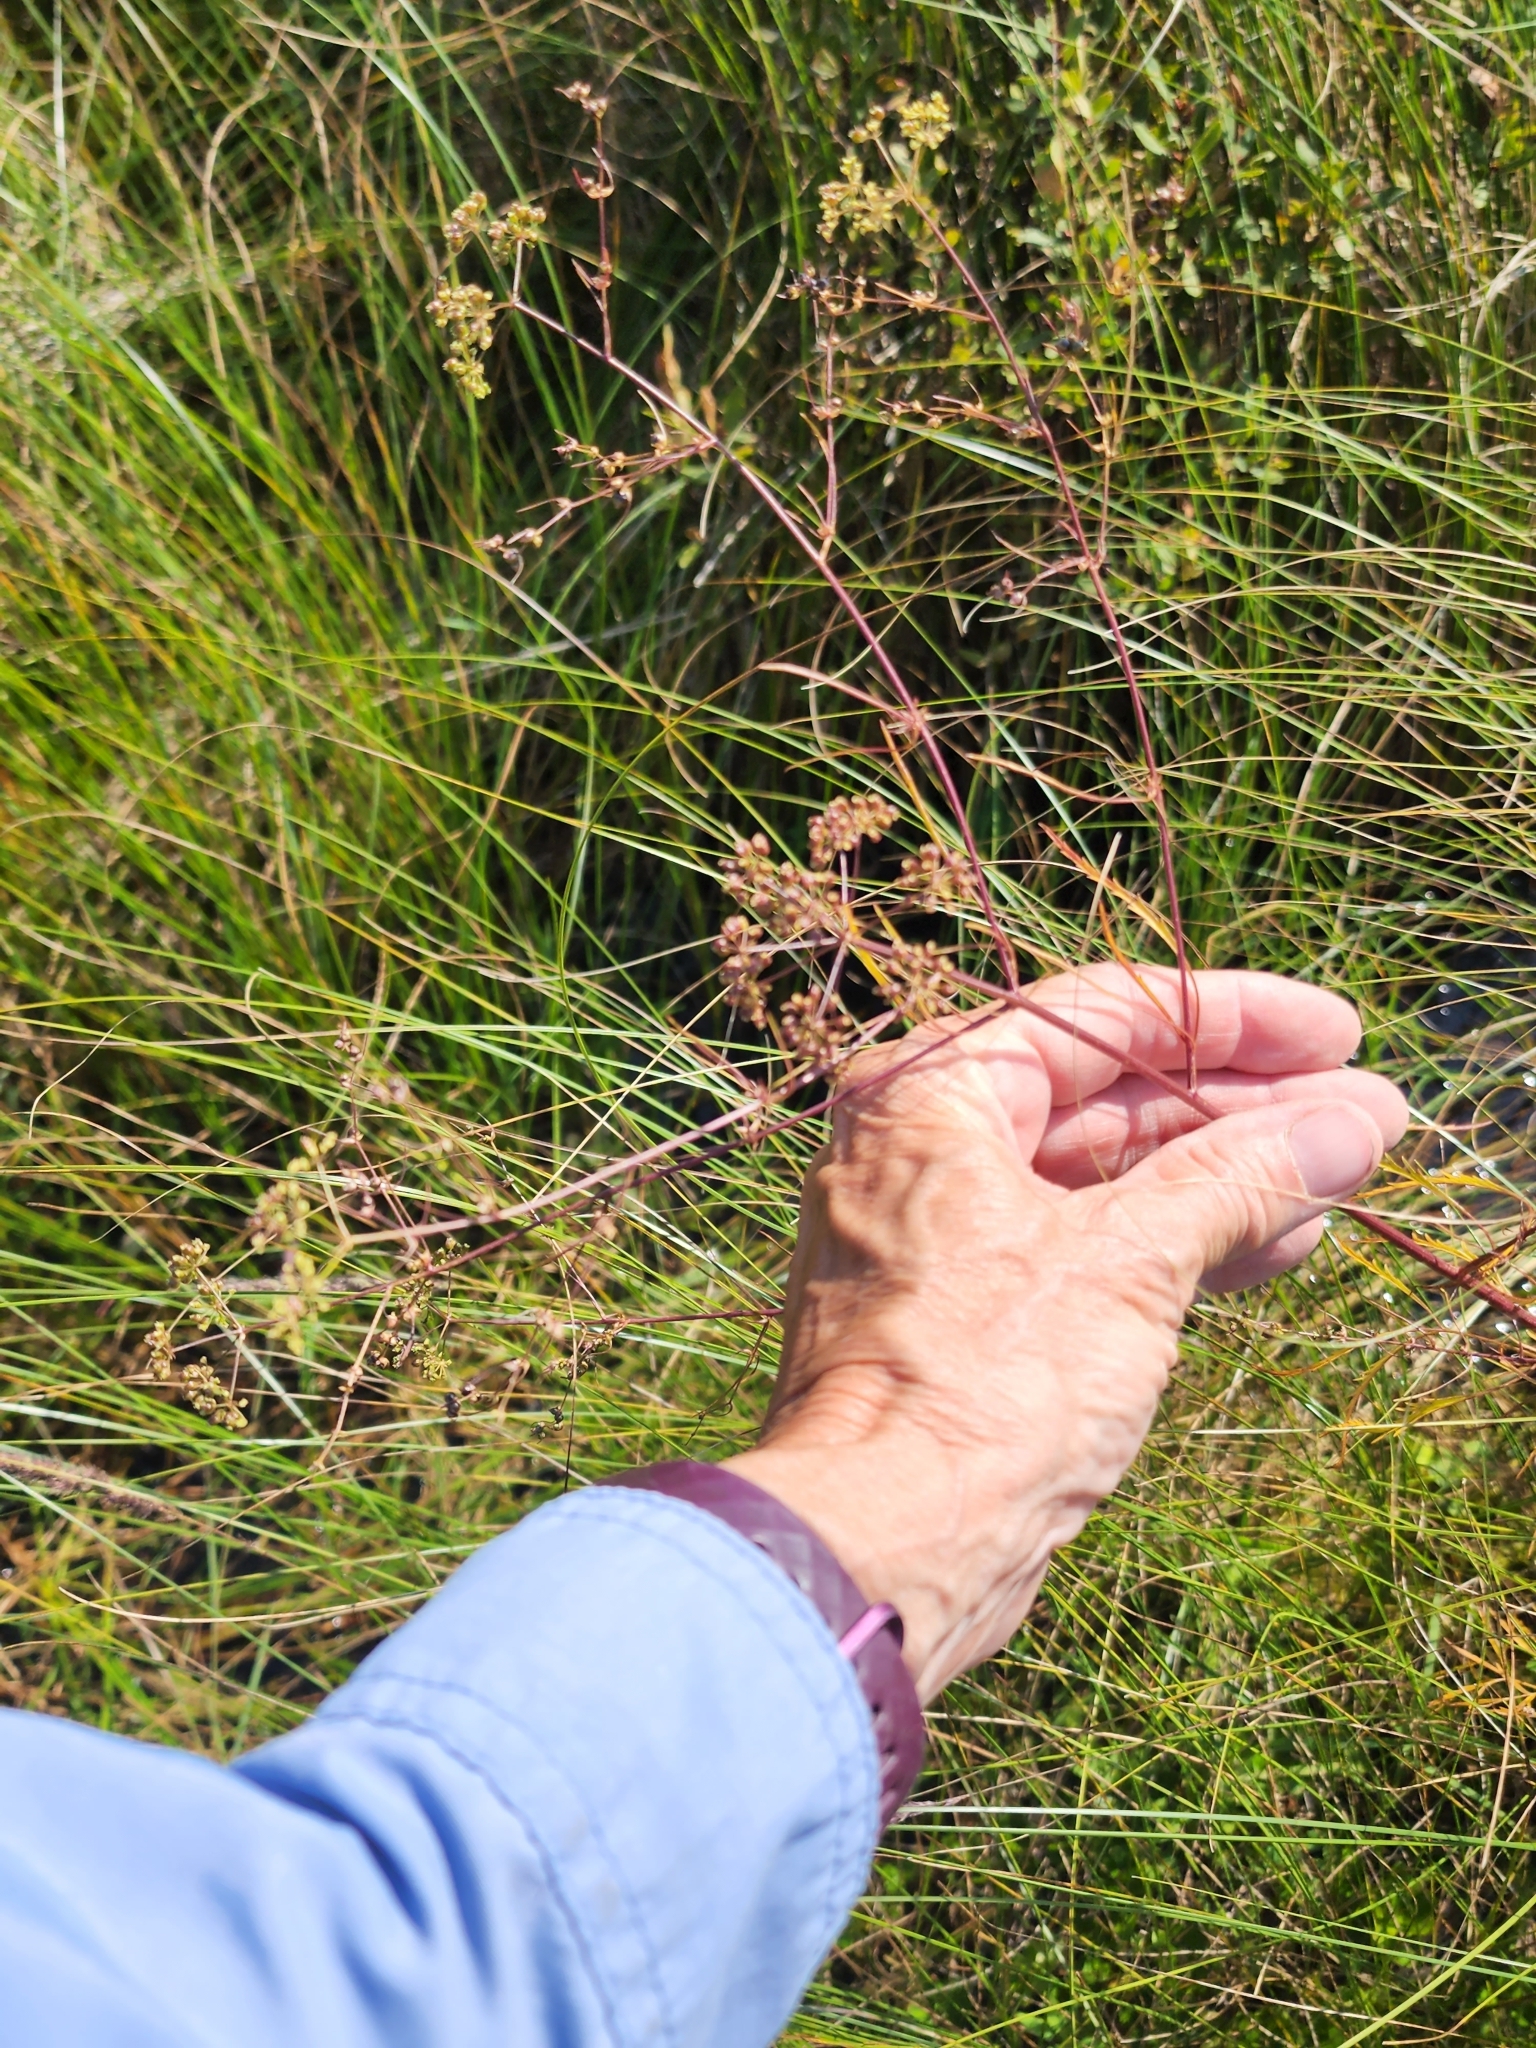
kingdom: Plantae
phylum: Tracheophyta
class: Magnoliopsida
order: Apiales
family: Apiaceae
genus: Cicuta
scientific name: Cicuta bulbifera
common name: Bulb-bearing water-hemlock
